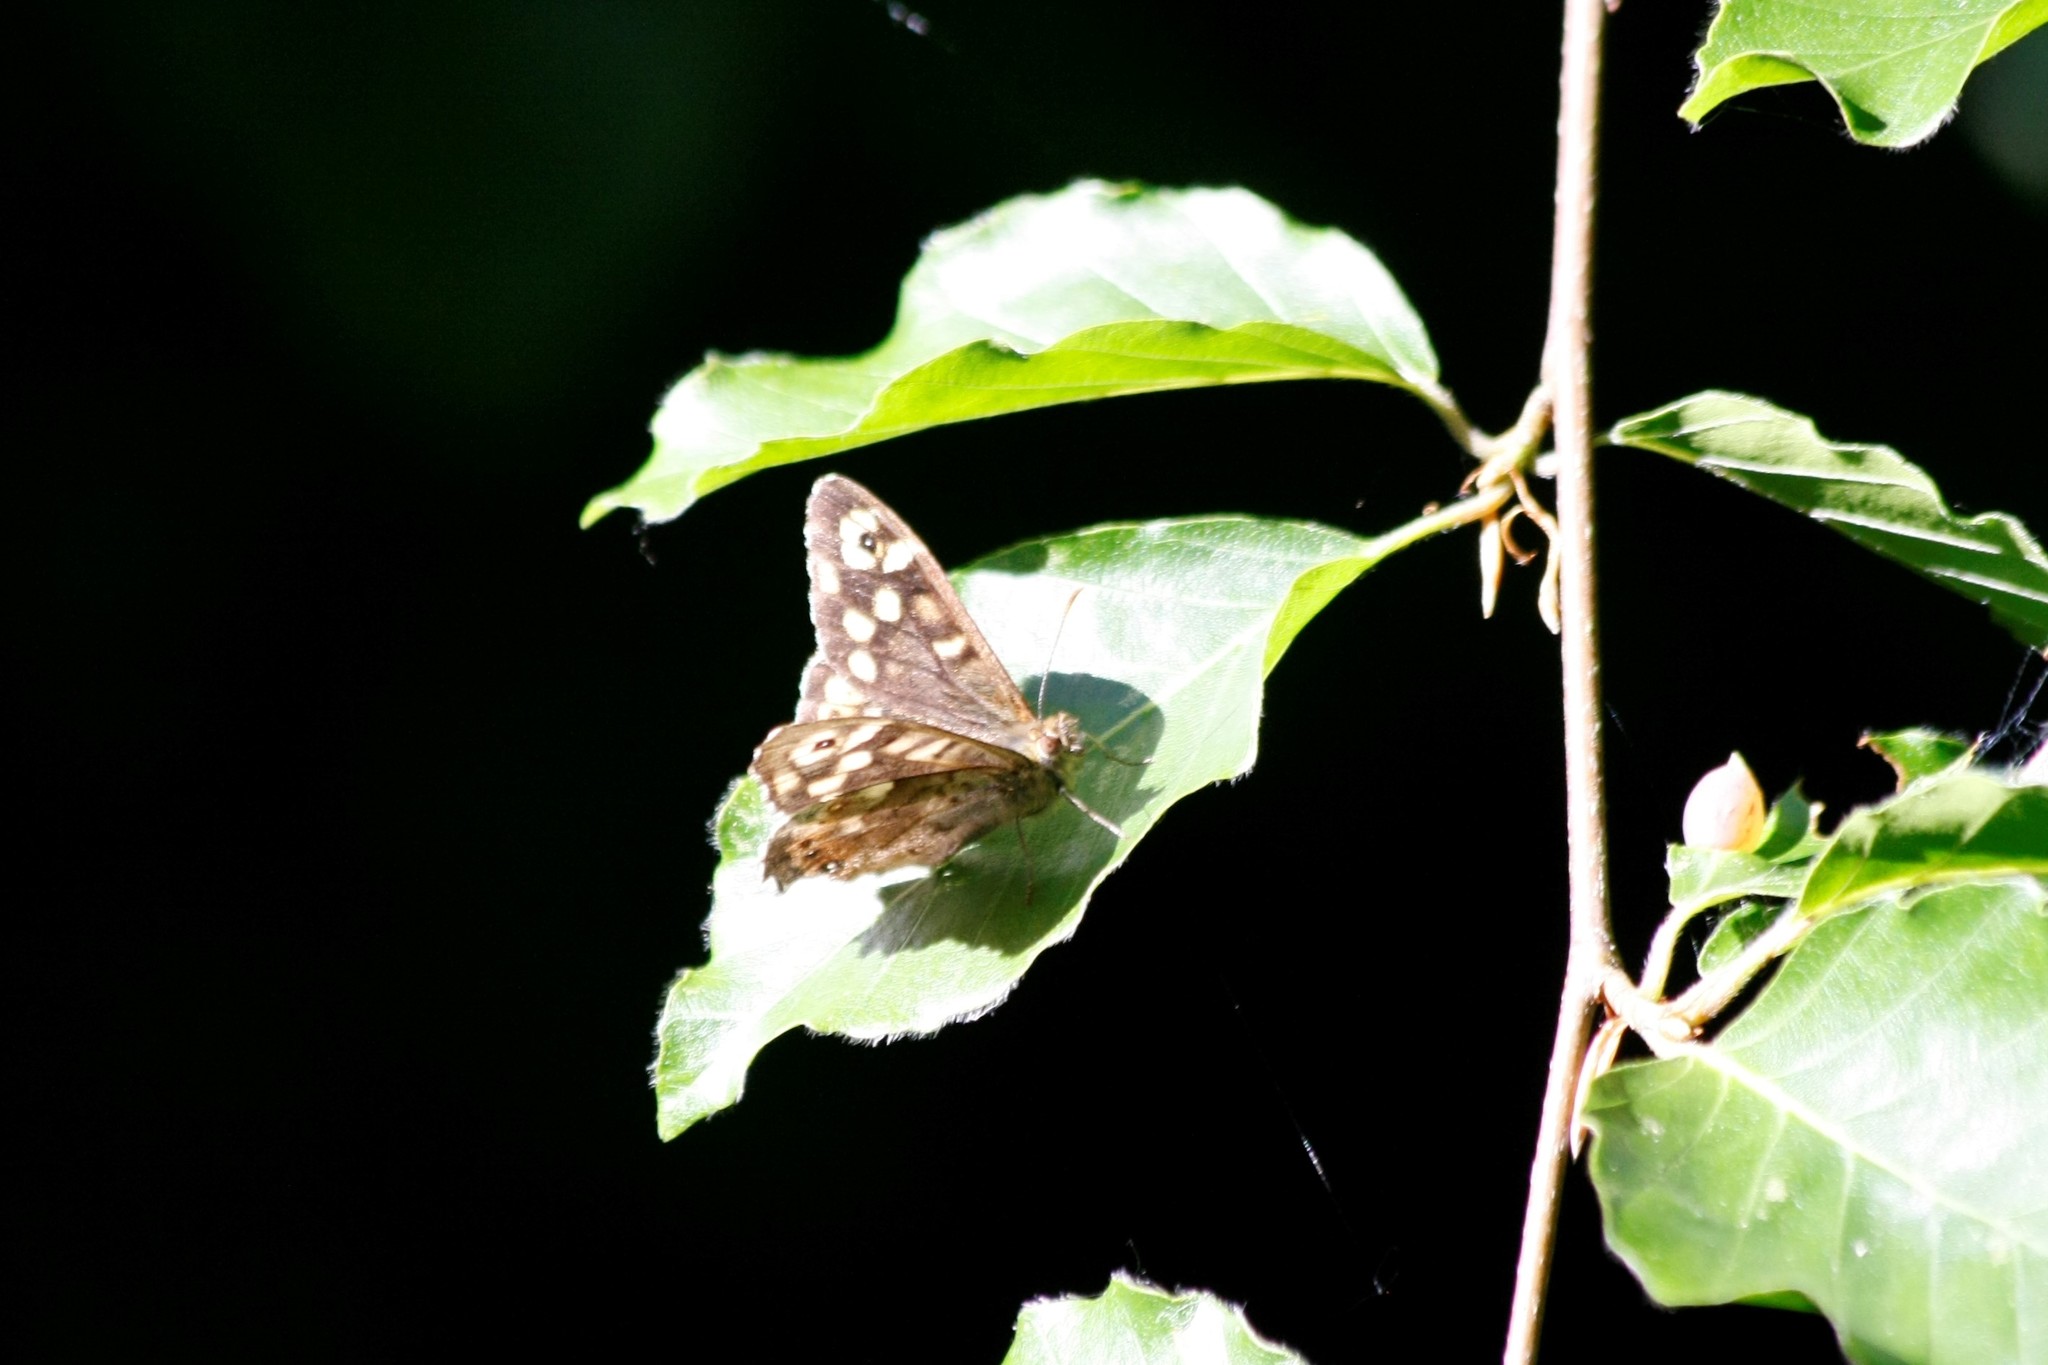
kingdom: Animalia
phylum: Arthropoda
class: Insecta
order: Lepidoptera
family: Nymphalidae
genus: Pararge
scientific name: Pararge aegeria
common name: Speckled wood
